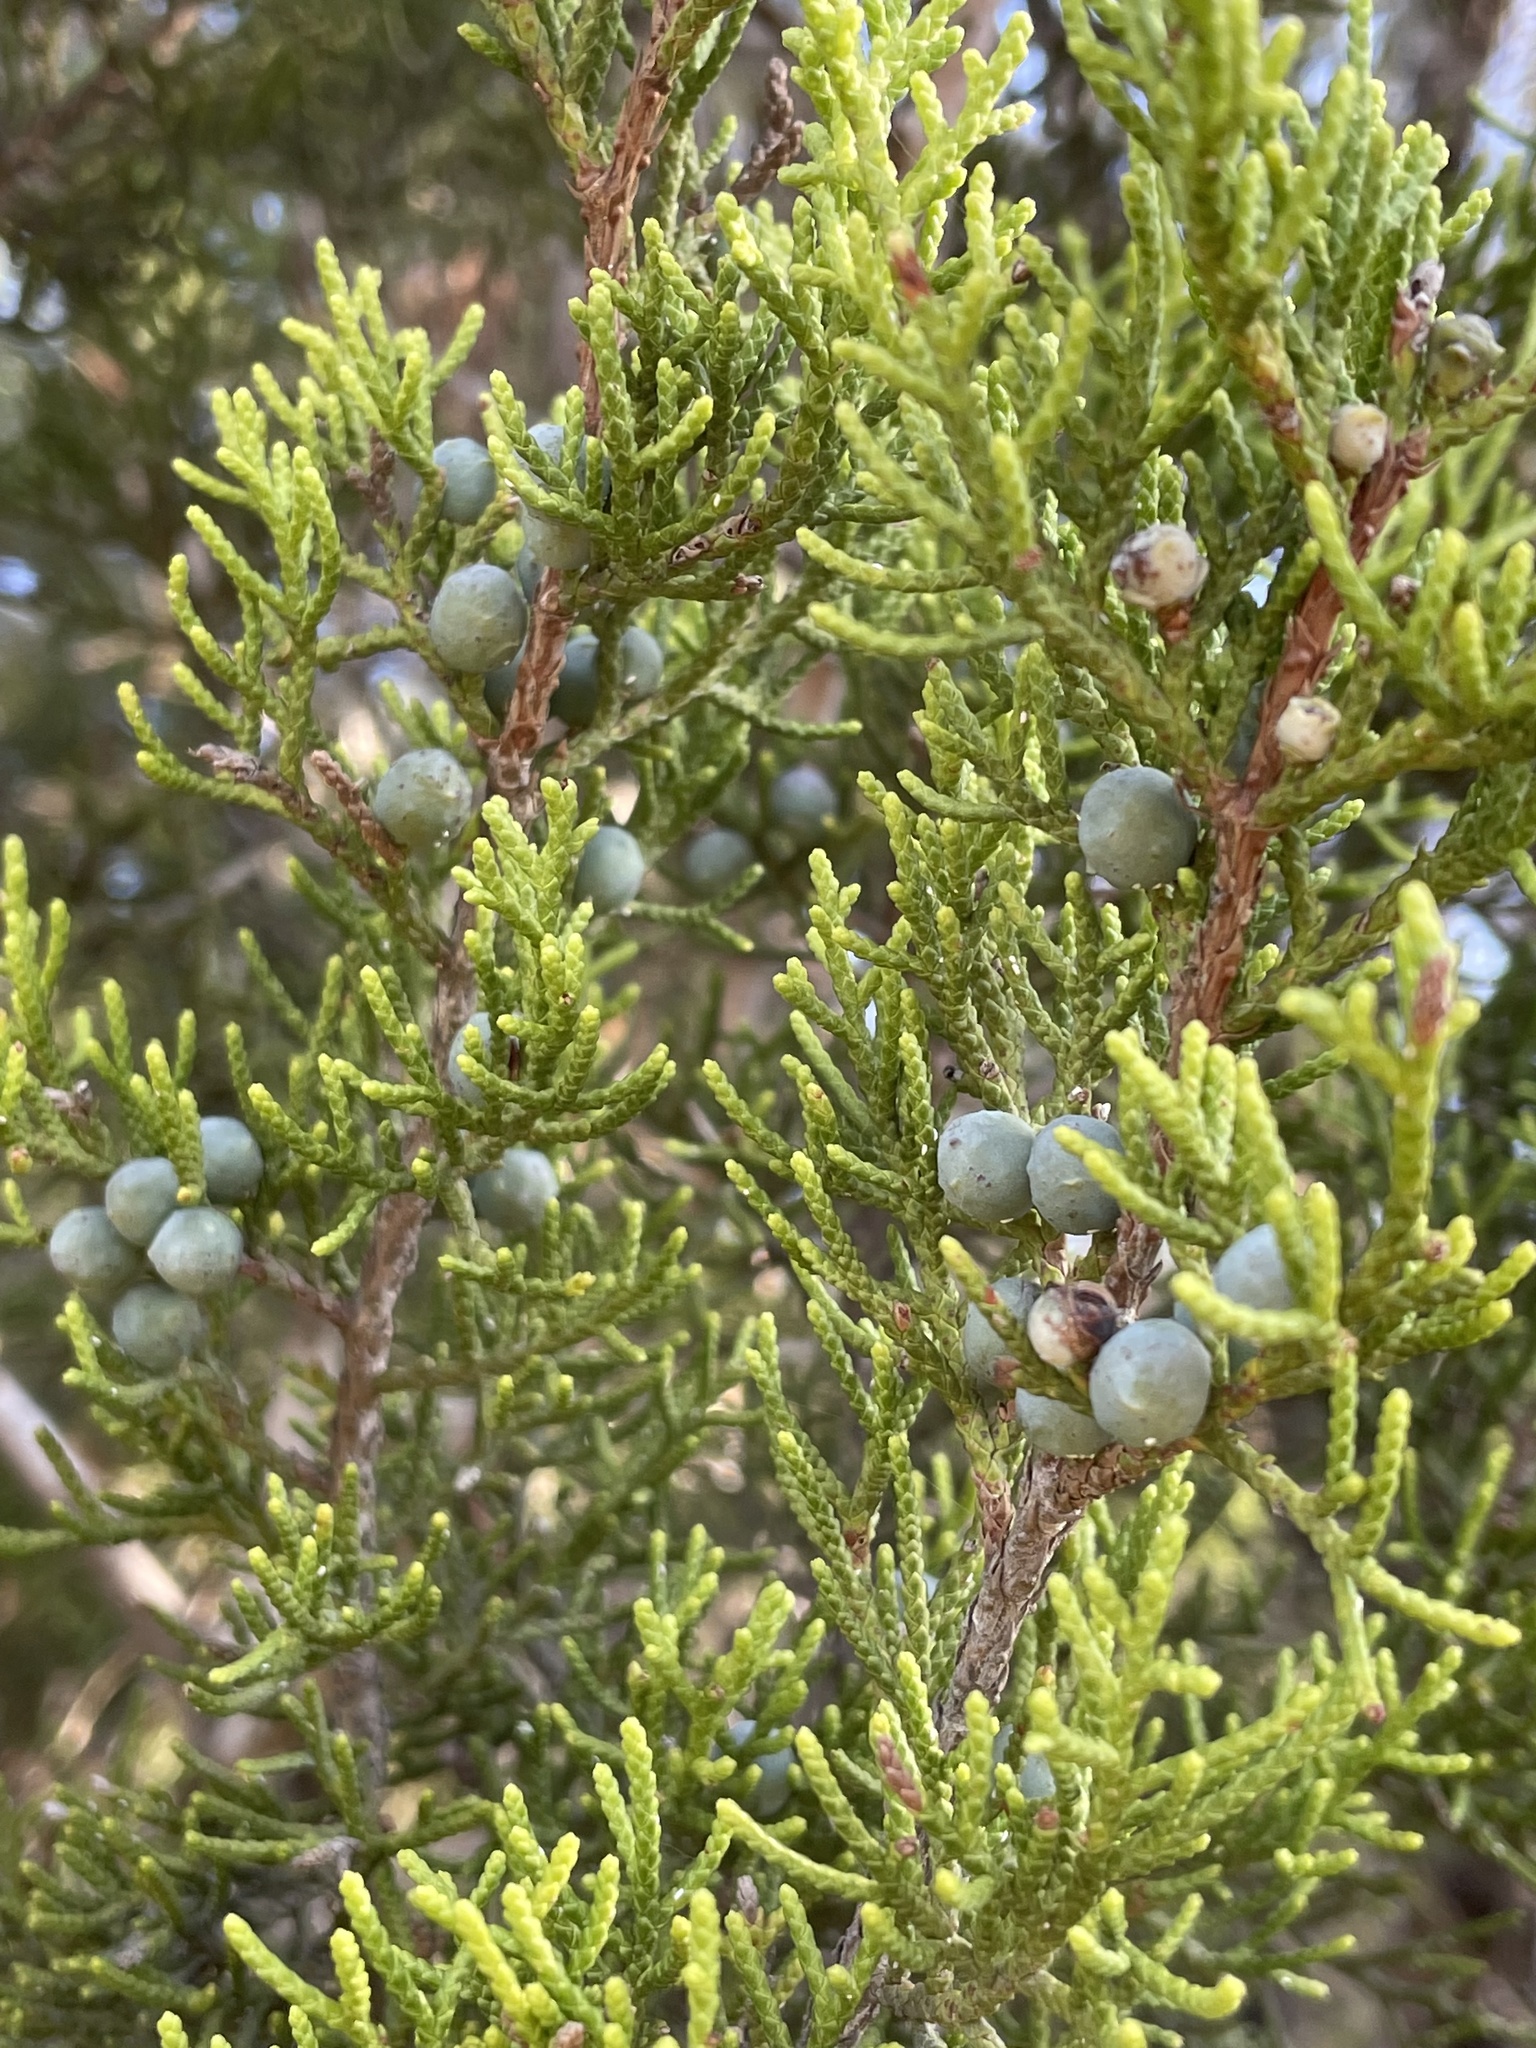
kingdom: Plantae
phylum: Tracheophyta
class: Pinopsida
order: Pinales
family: Cupressaceae
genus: Juniperus
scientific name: Juniperus ashei
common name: Mexican juniper
